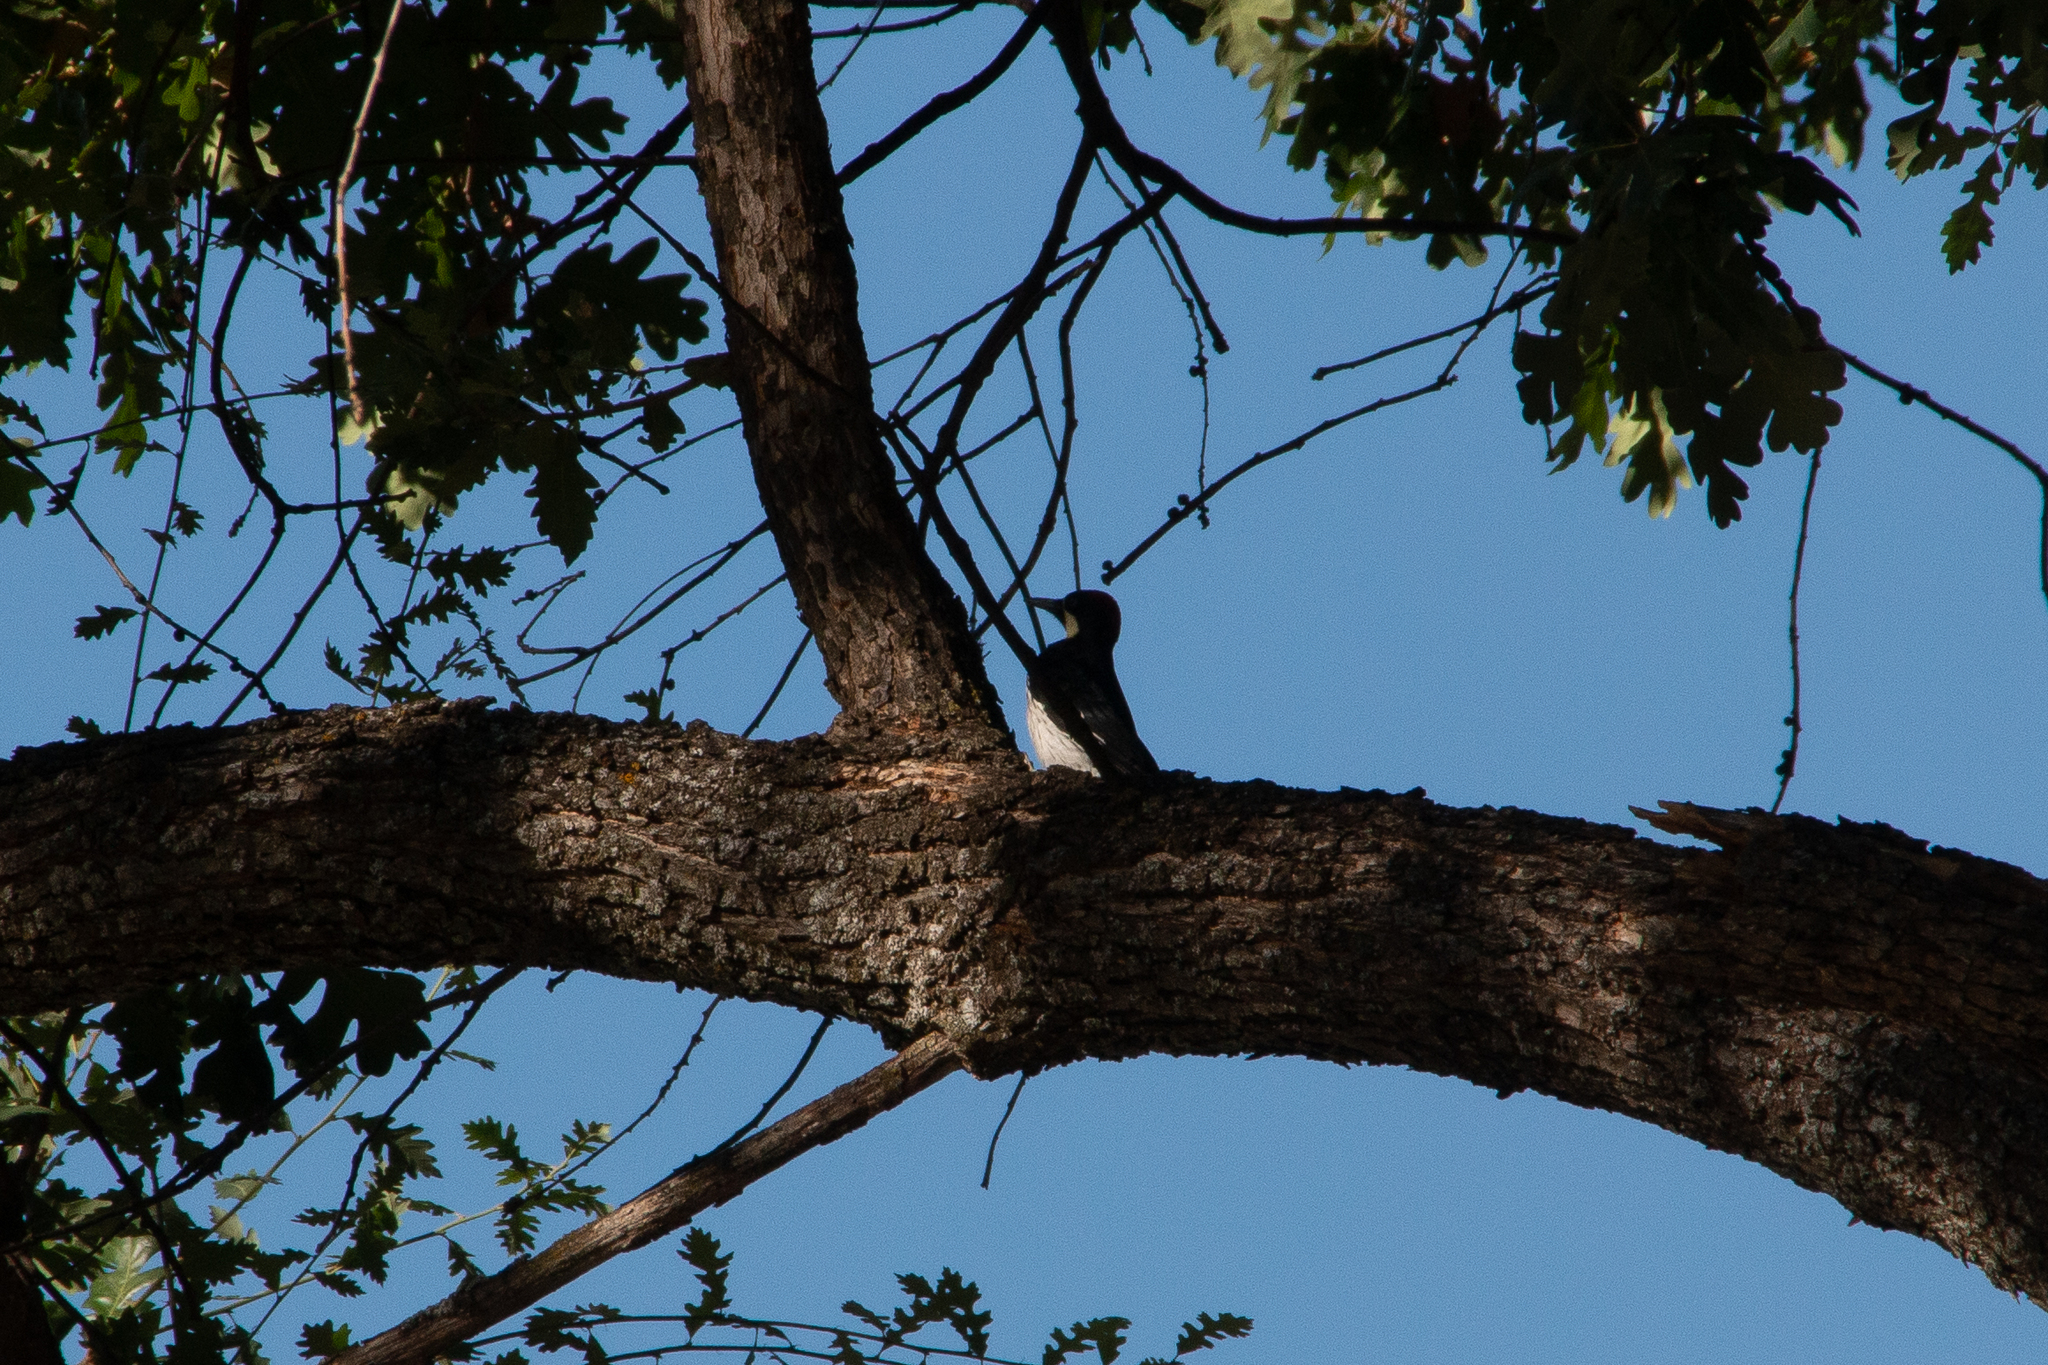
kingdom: Animalia
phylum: Chordata
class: Aves
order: Piciformes
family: Picidae
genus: Melanerpes
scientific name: Melanerpes formicivorus
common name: Acorn woodpecker
